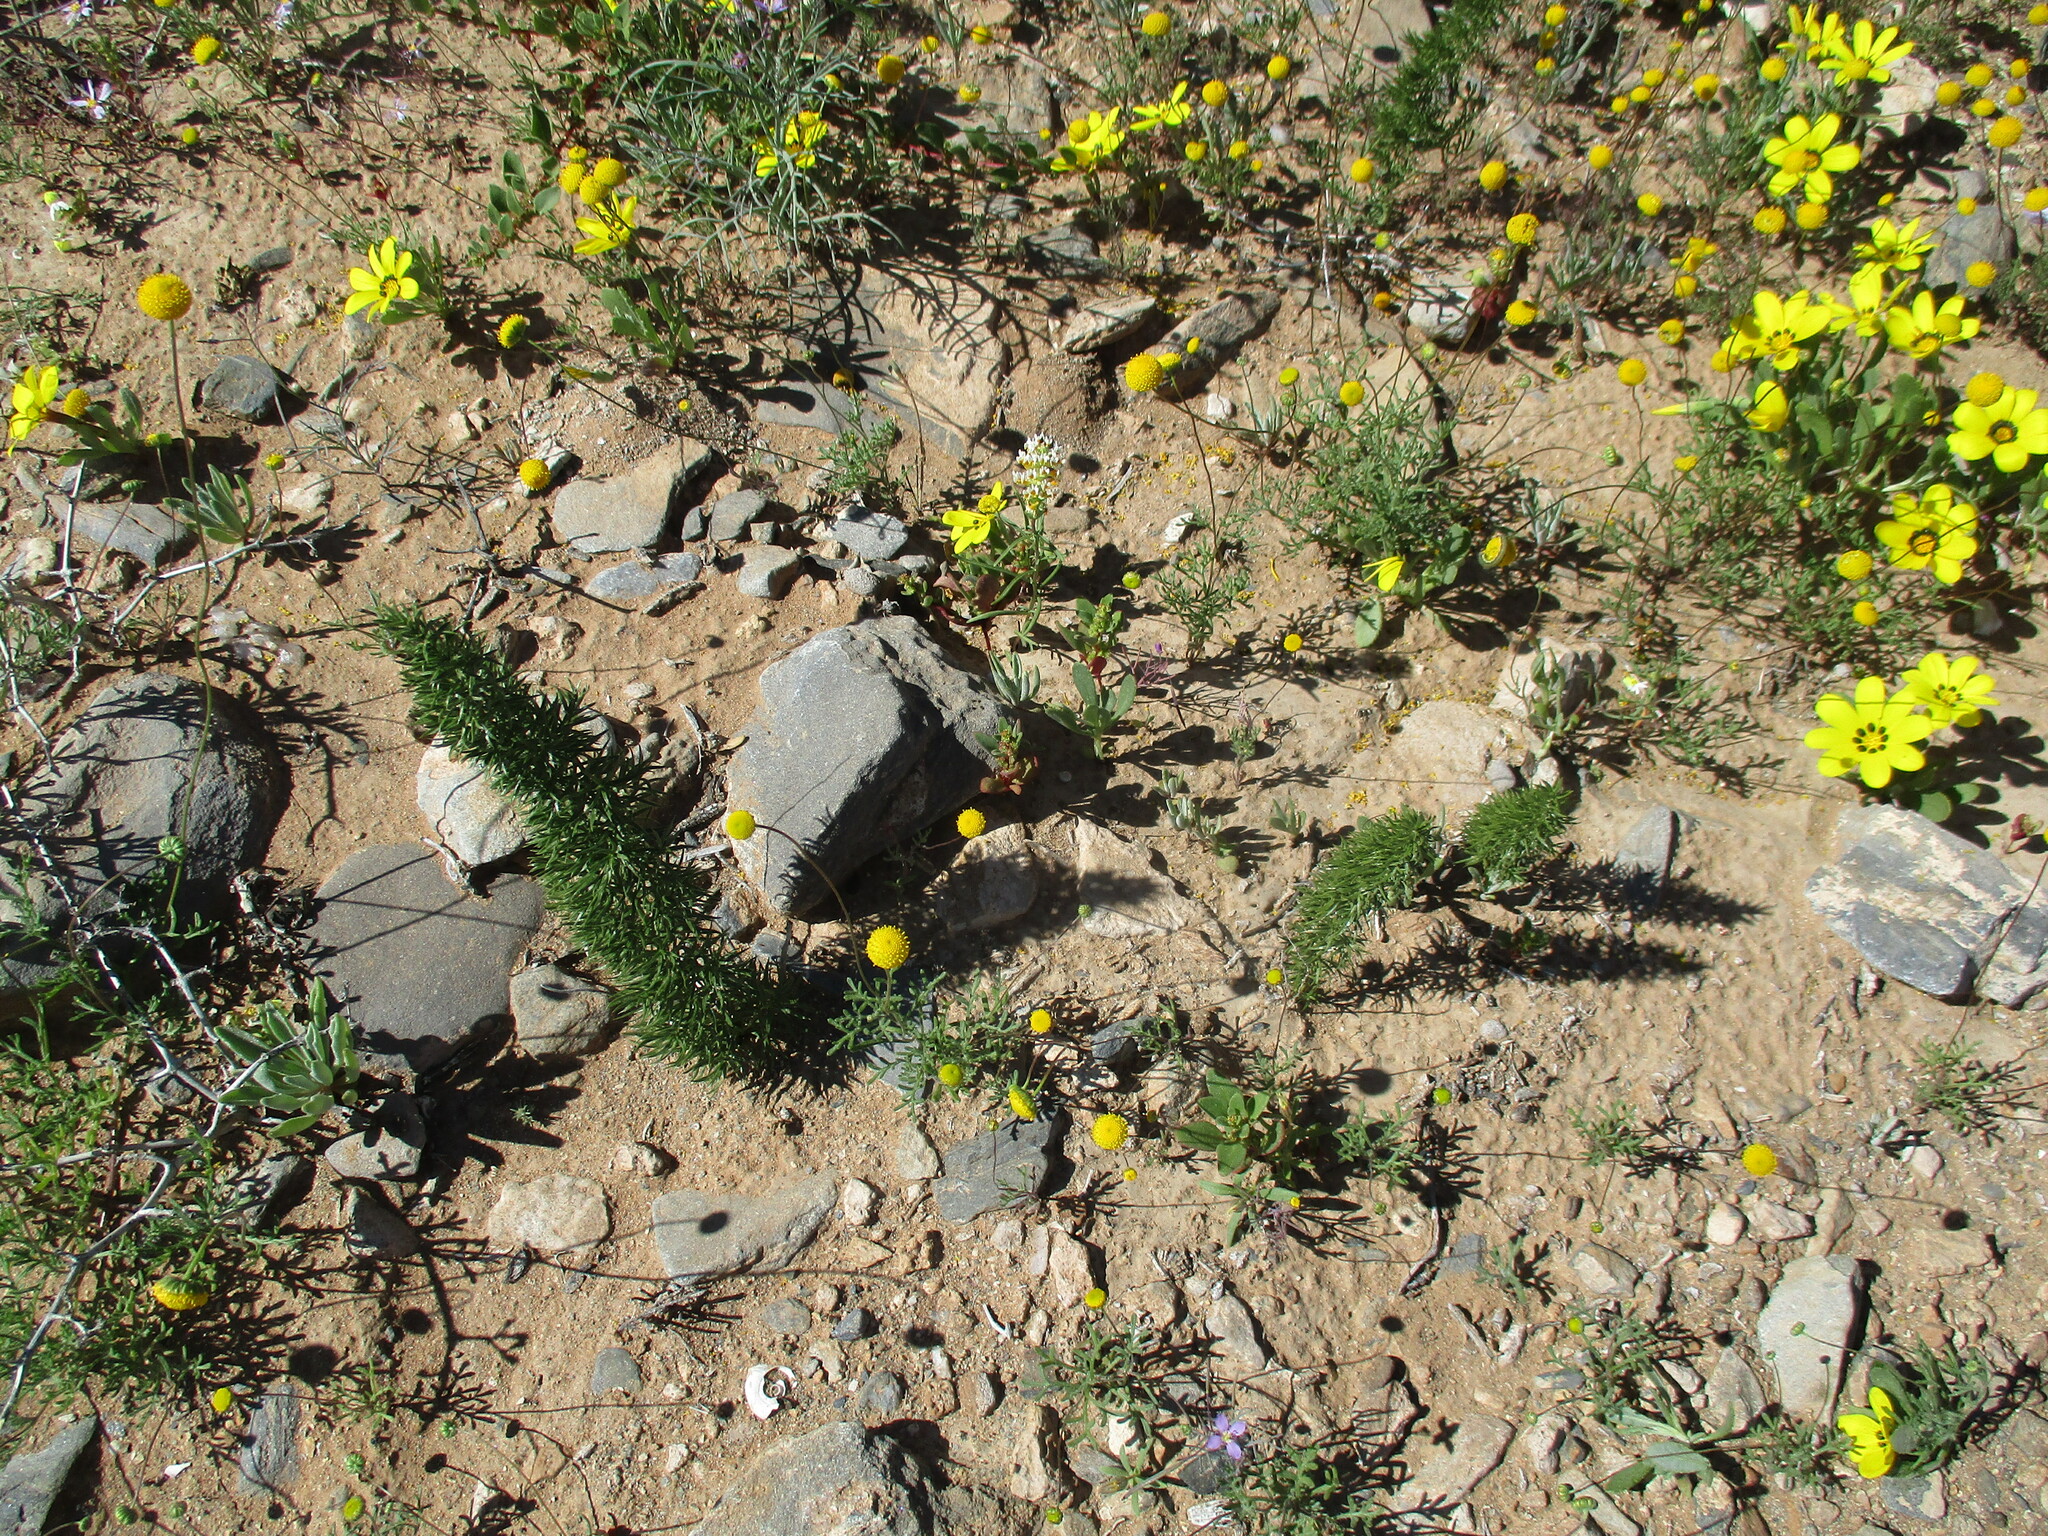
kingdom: Plantae
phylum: Tracheophyta
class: Liliopsida
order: Asparagales
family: Asparagaceae
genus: Asparagus
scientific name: Asparagus juniperoides
